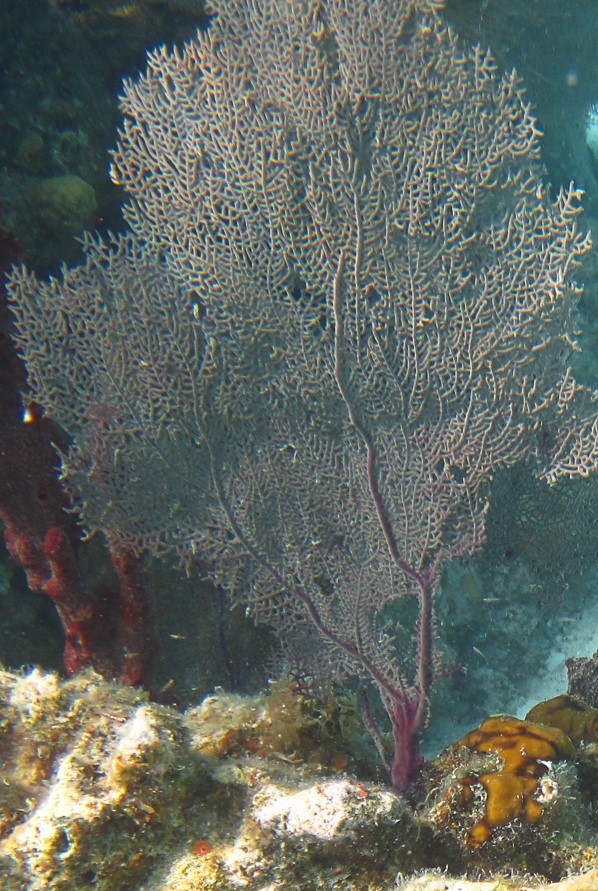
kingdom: Animalia
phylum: Cnidaria
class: Anthozoa
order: Malacalcyonacea
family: Gorgoniidae
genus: Gorgonia
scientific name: Gorgonia ventalina
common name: Common sea fan
